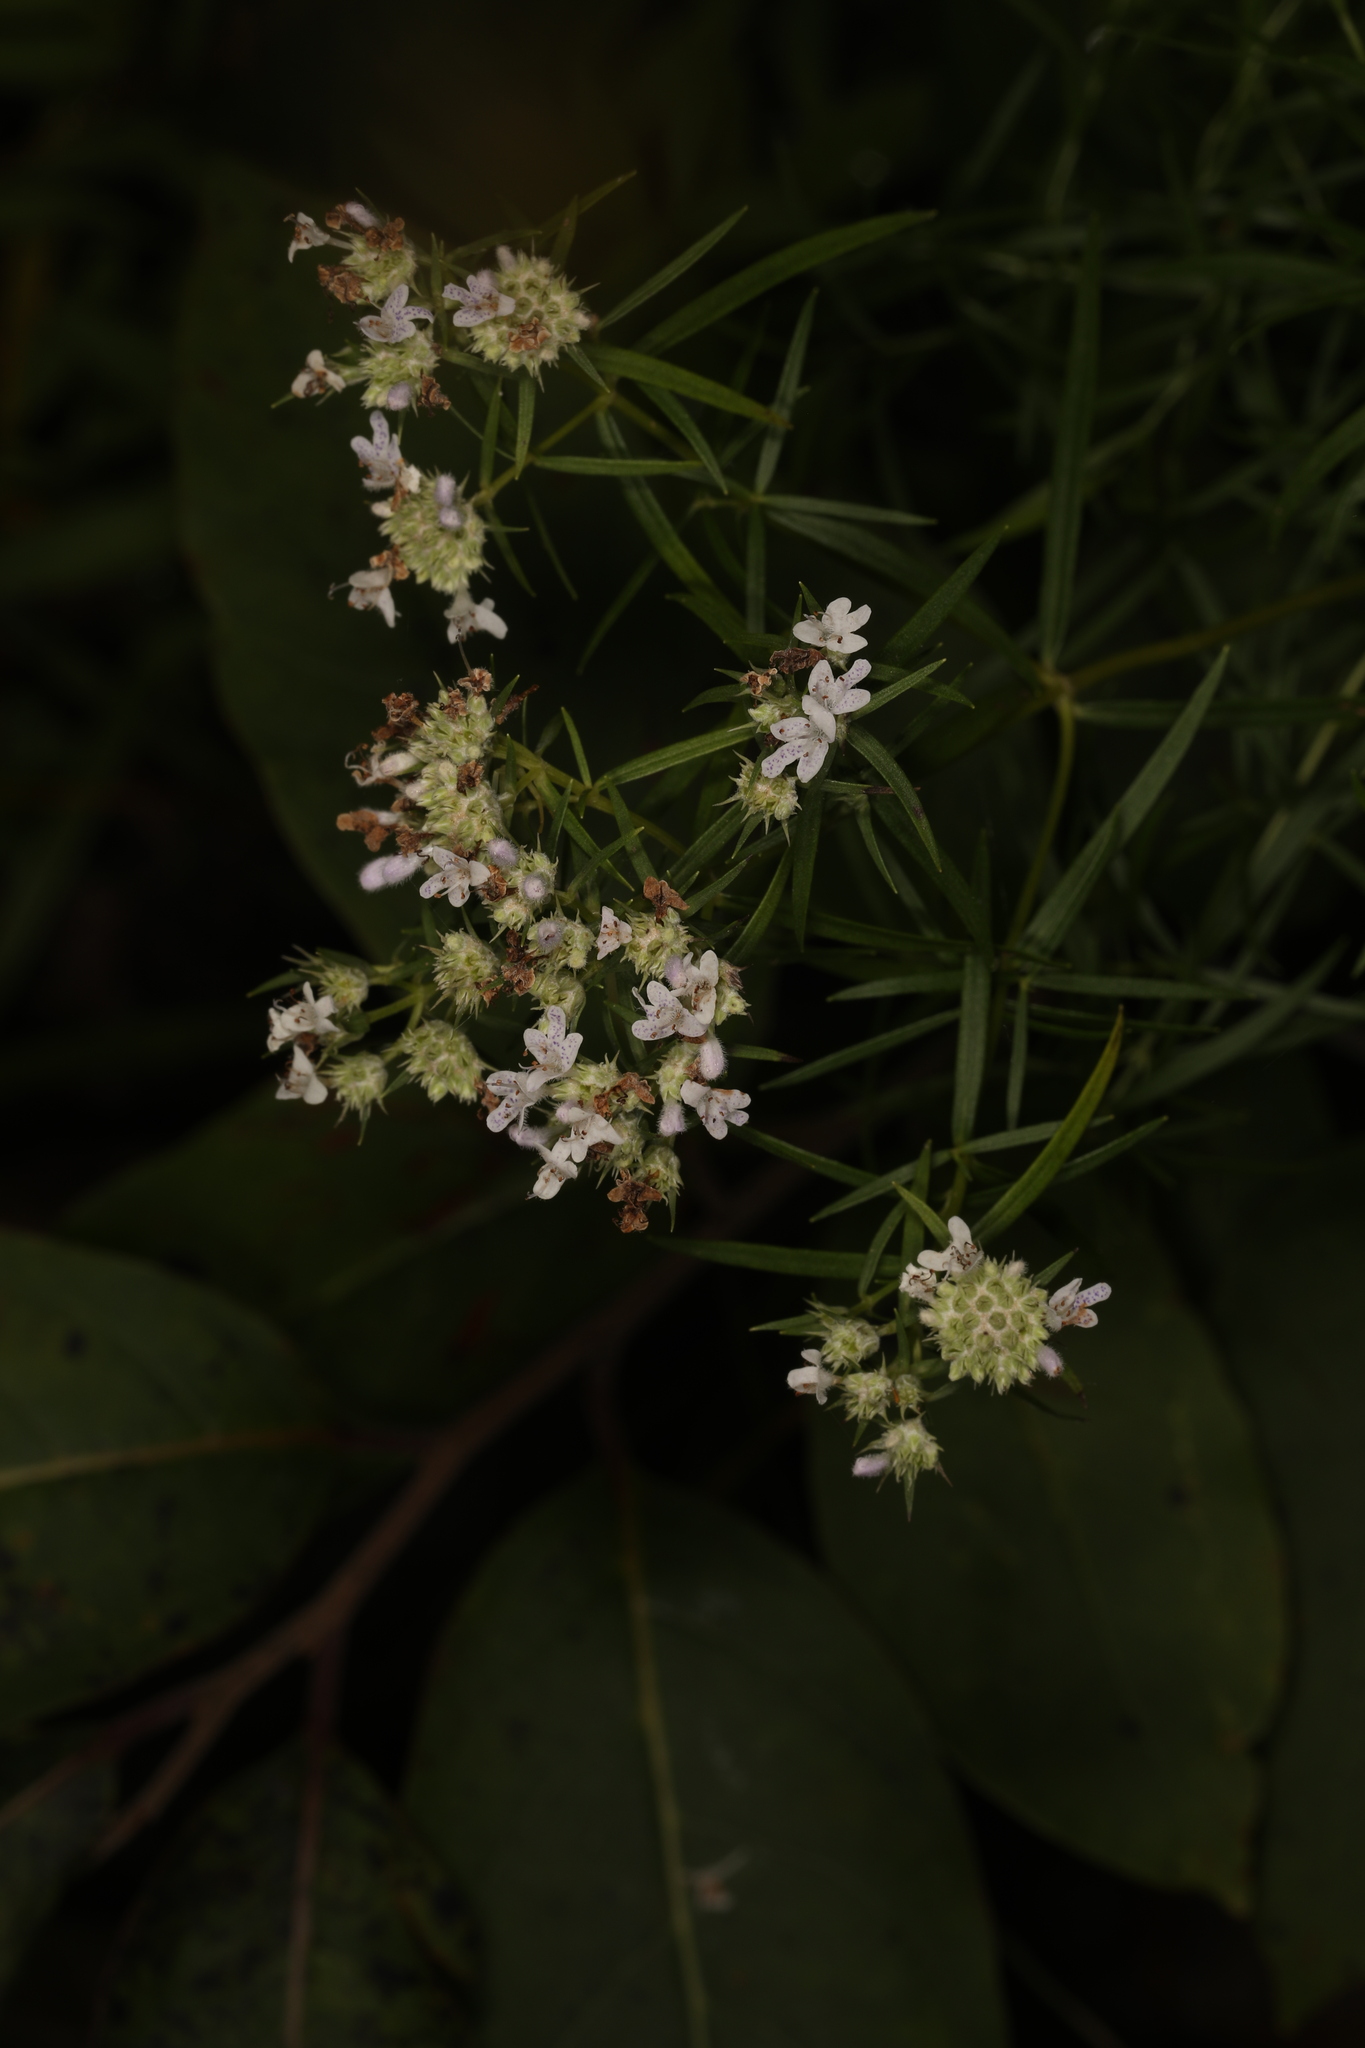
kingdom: Plantae
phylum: Tracheophyta
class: Magnoliopsida
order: Lamiales
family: Lamiaceae
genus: Pycnanthemum
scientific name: Pycnanthemum tenuifolium
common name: Narrow-leaf mountain-mint
